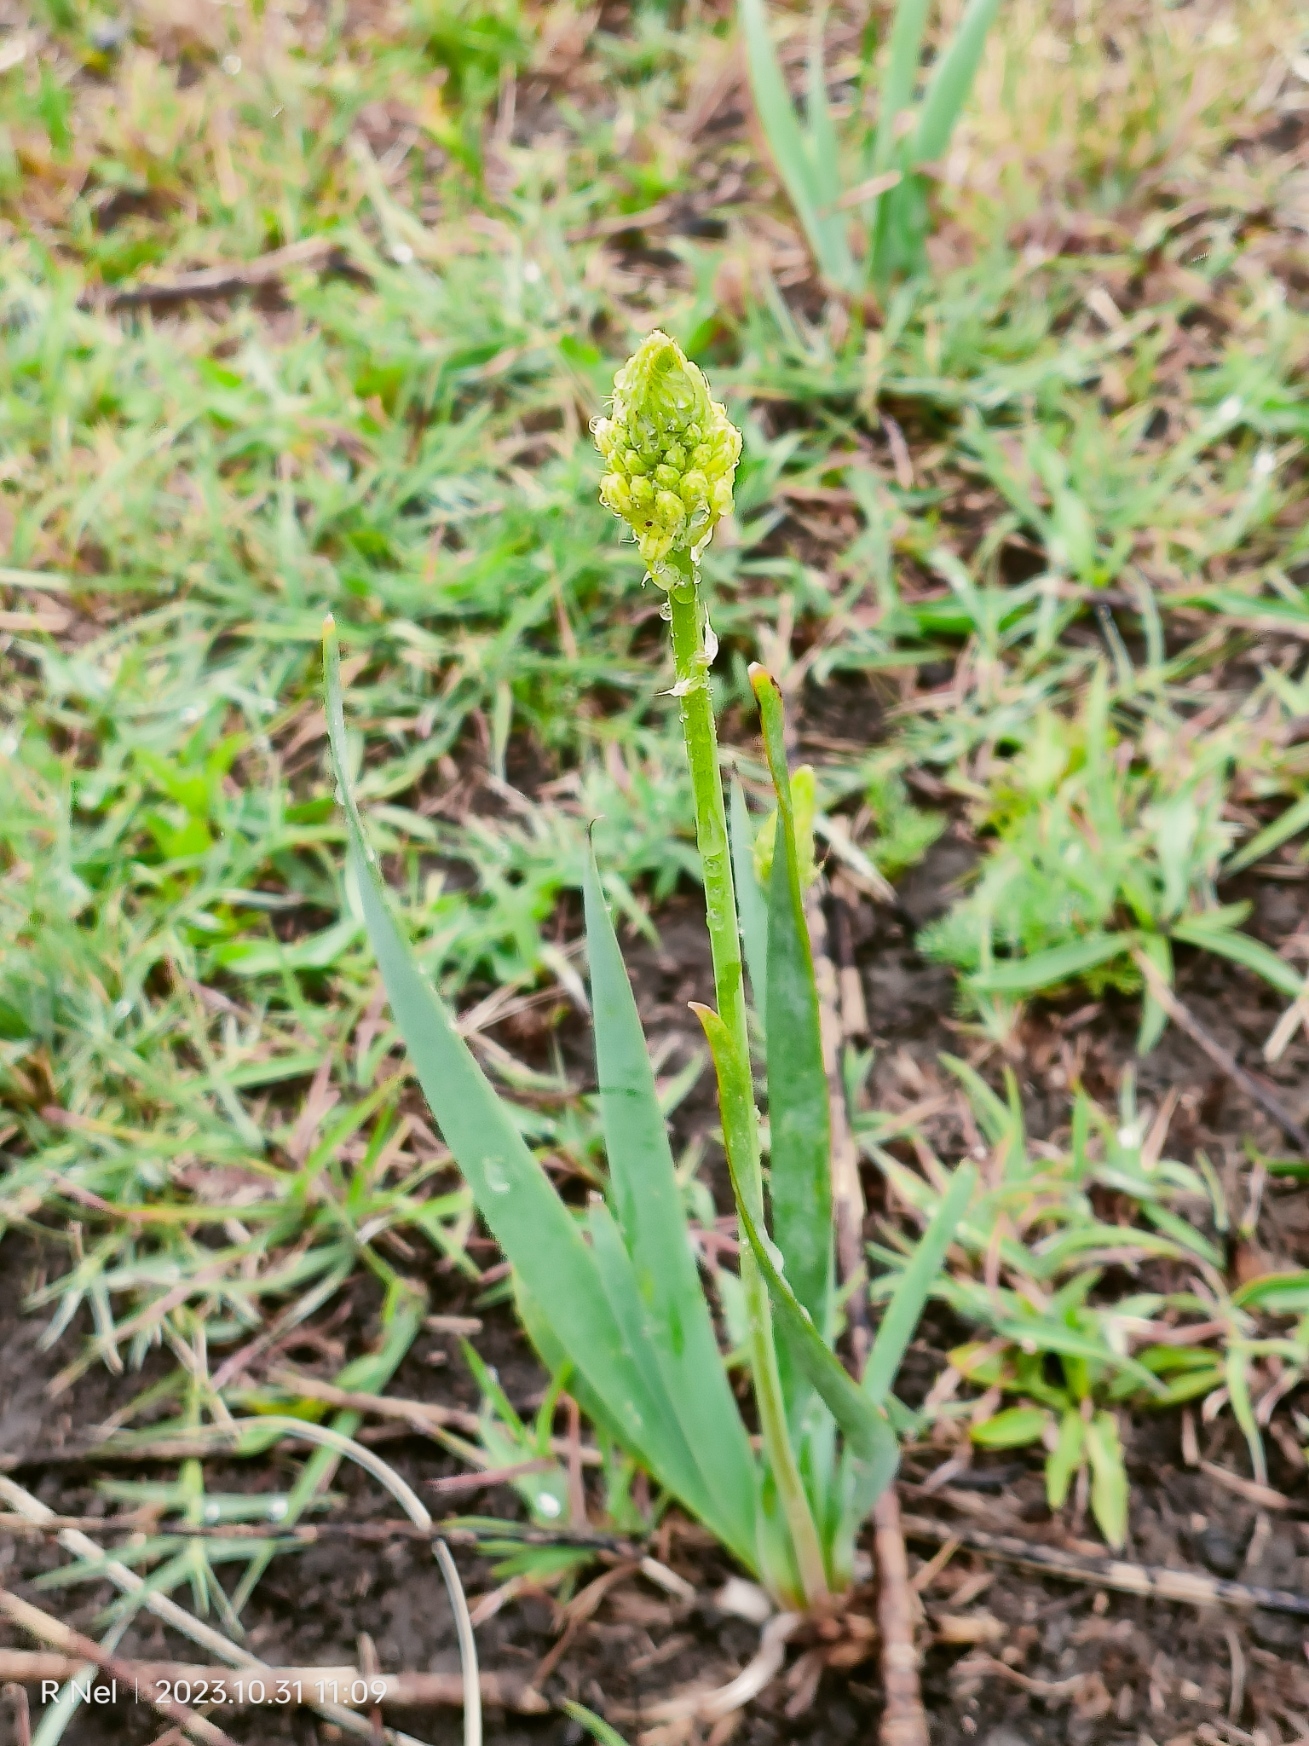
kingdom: Plantae
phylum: Tracheophyta
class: Liliopsida
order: Asparagales
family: Asphodelaceae
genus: Bulbine
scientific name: Bulbine narcissifolia
